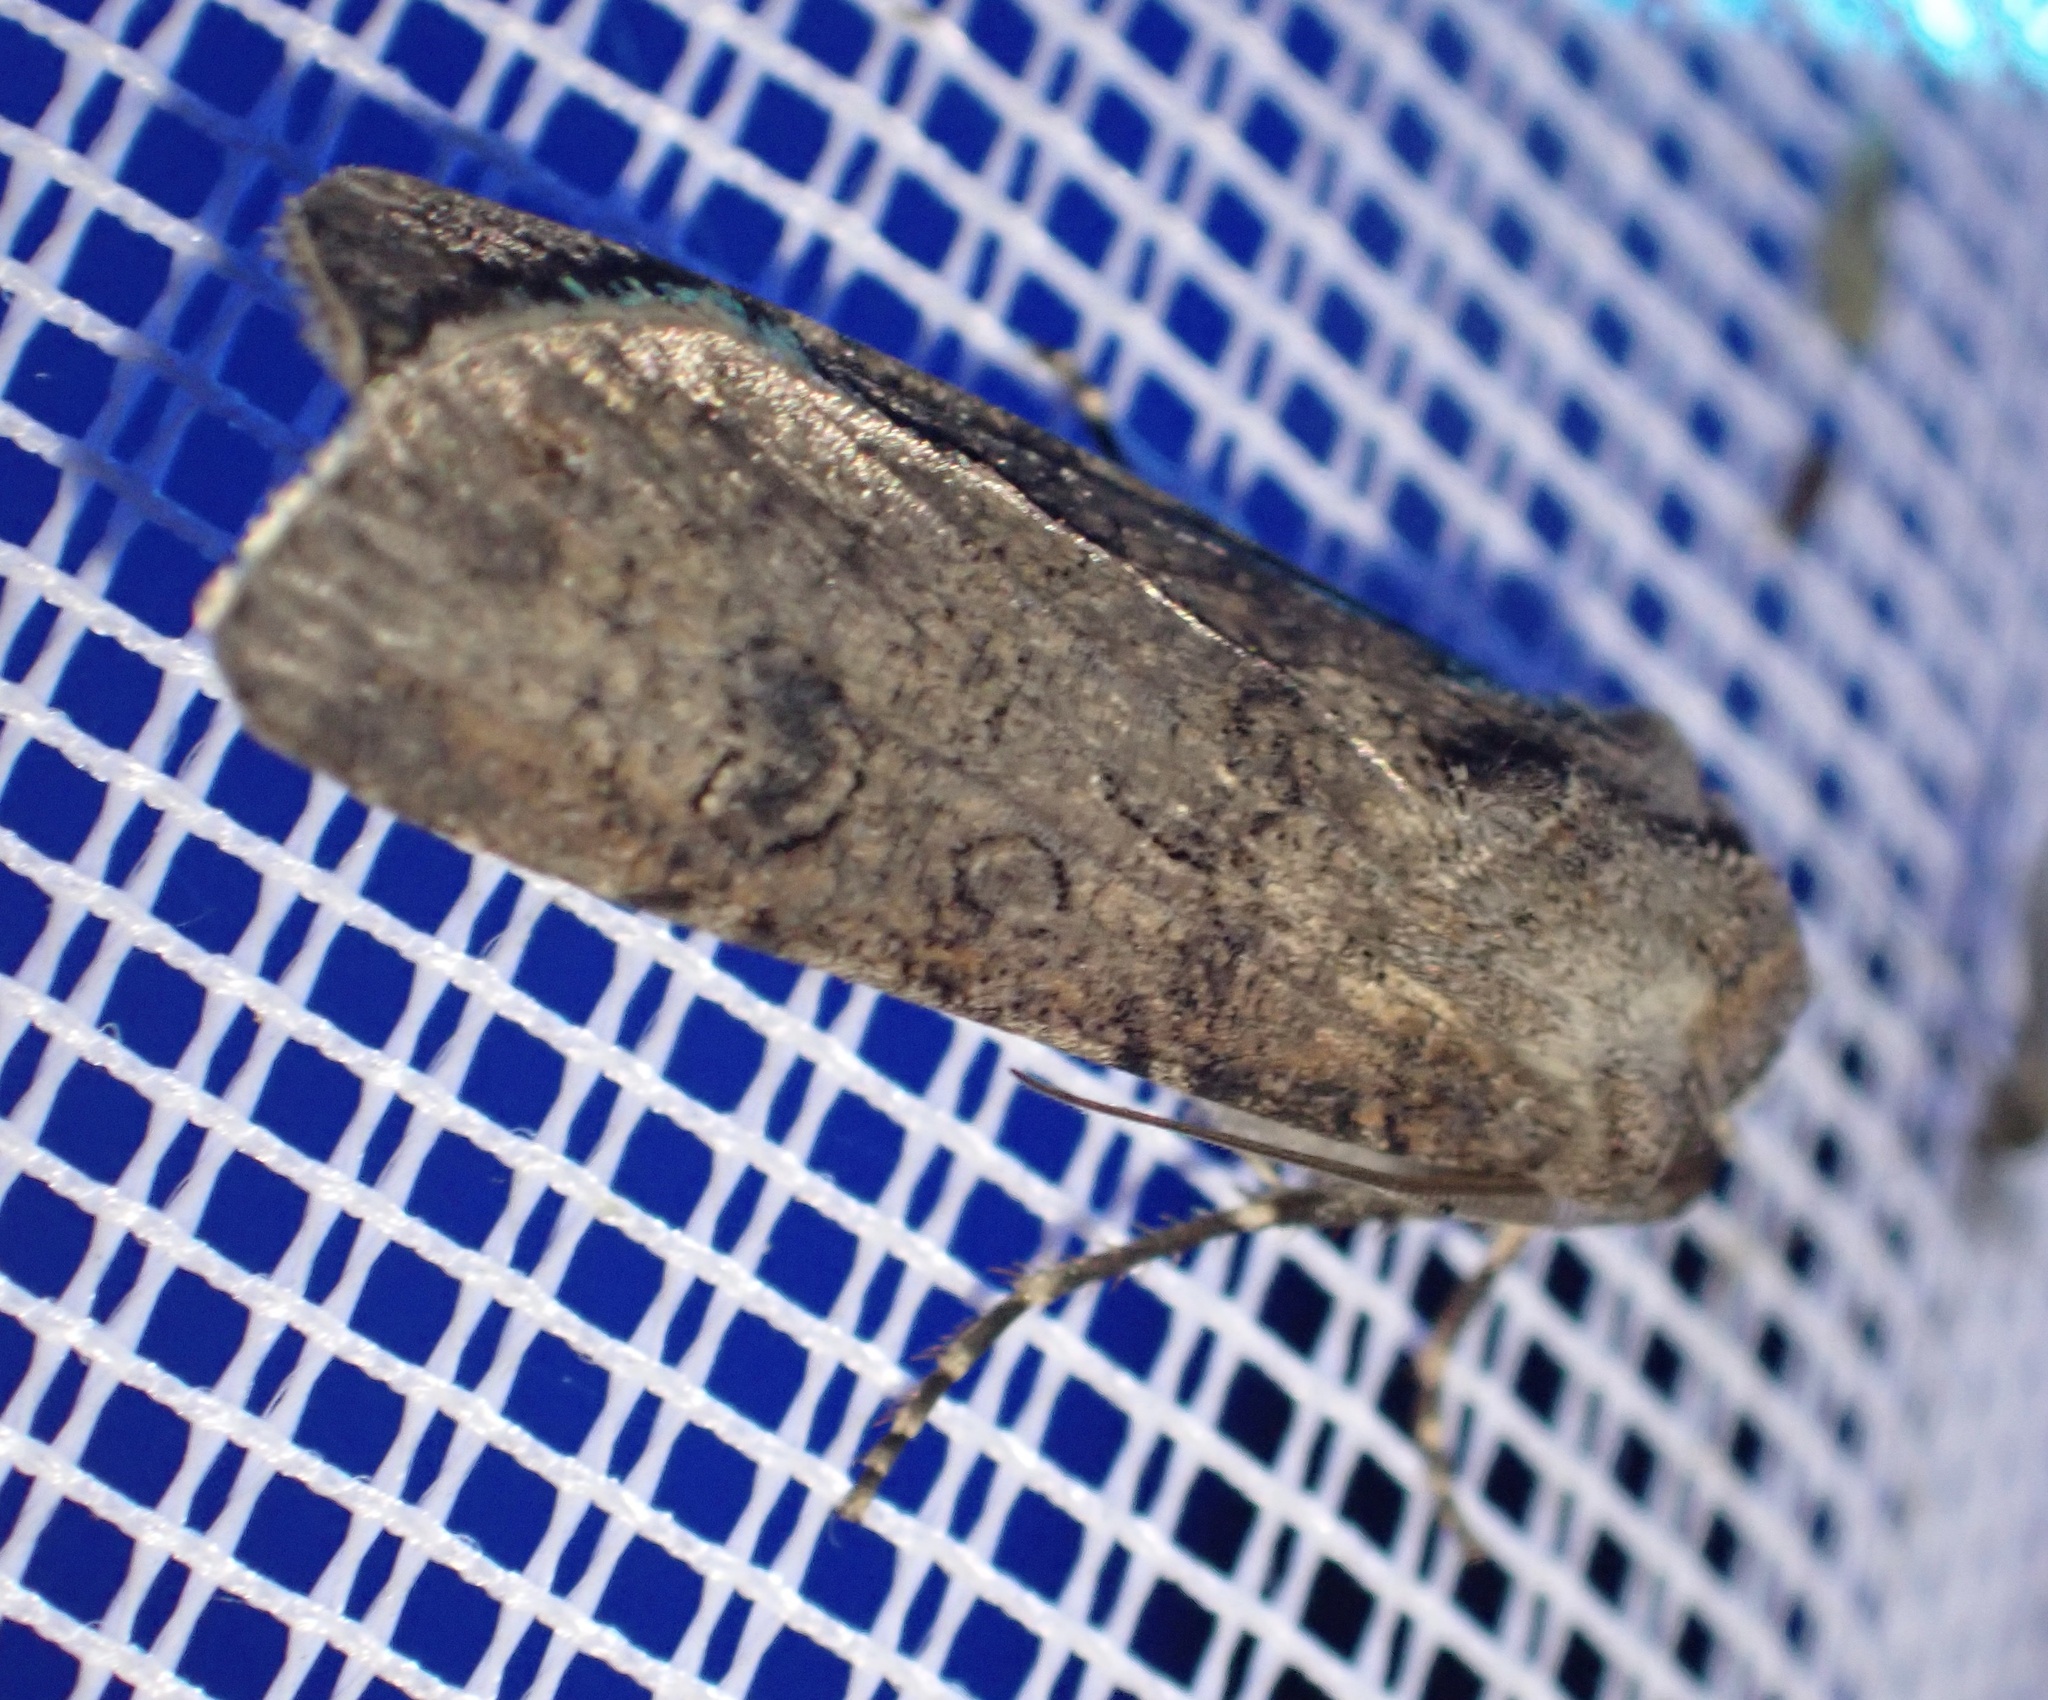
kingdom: Animalia
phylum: Arthropoda
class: Insecta
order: Lepidoptera
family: Noctuidae
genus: Agrotis
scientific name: Agrotis segetum
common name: Turnip moth
